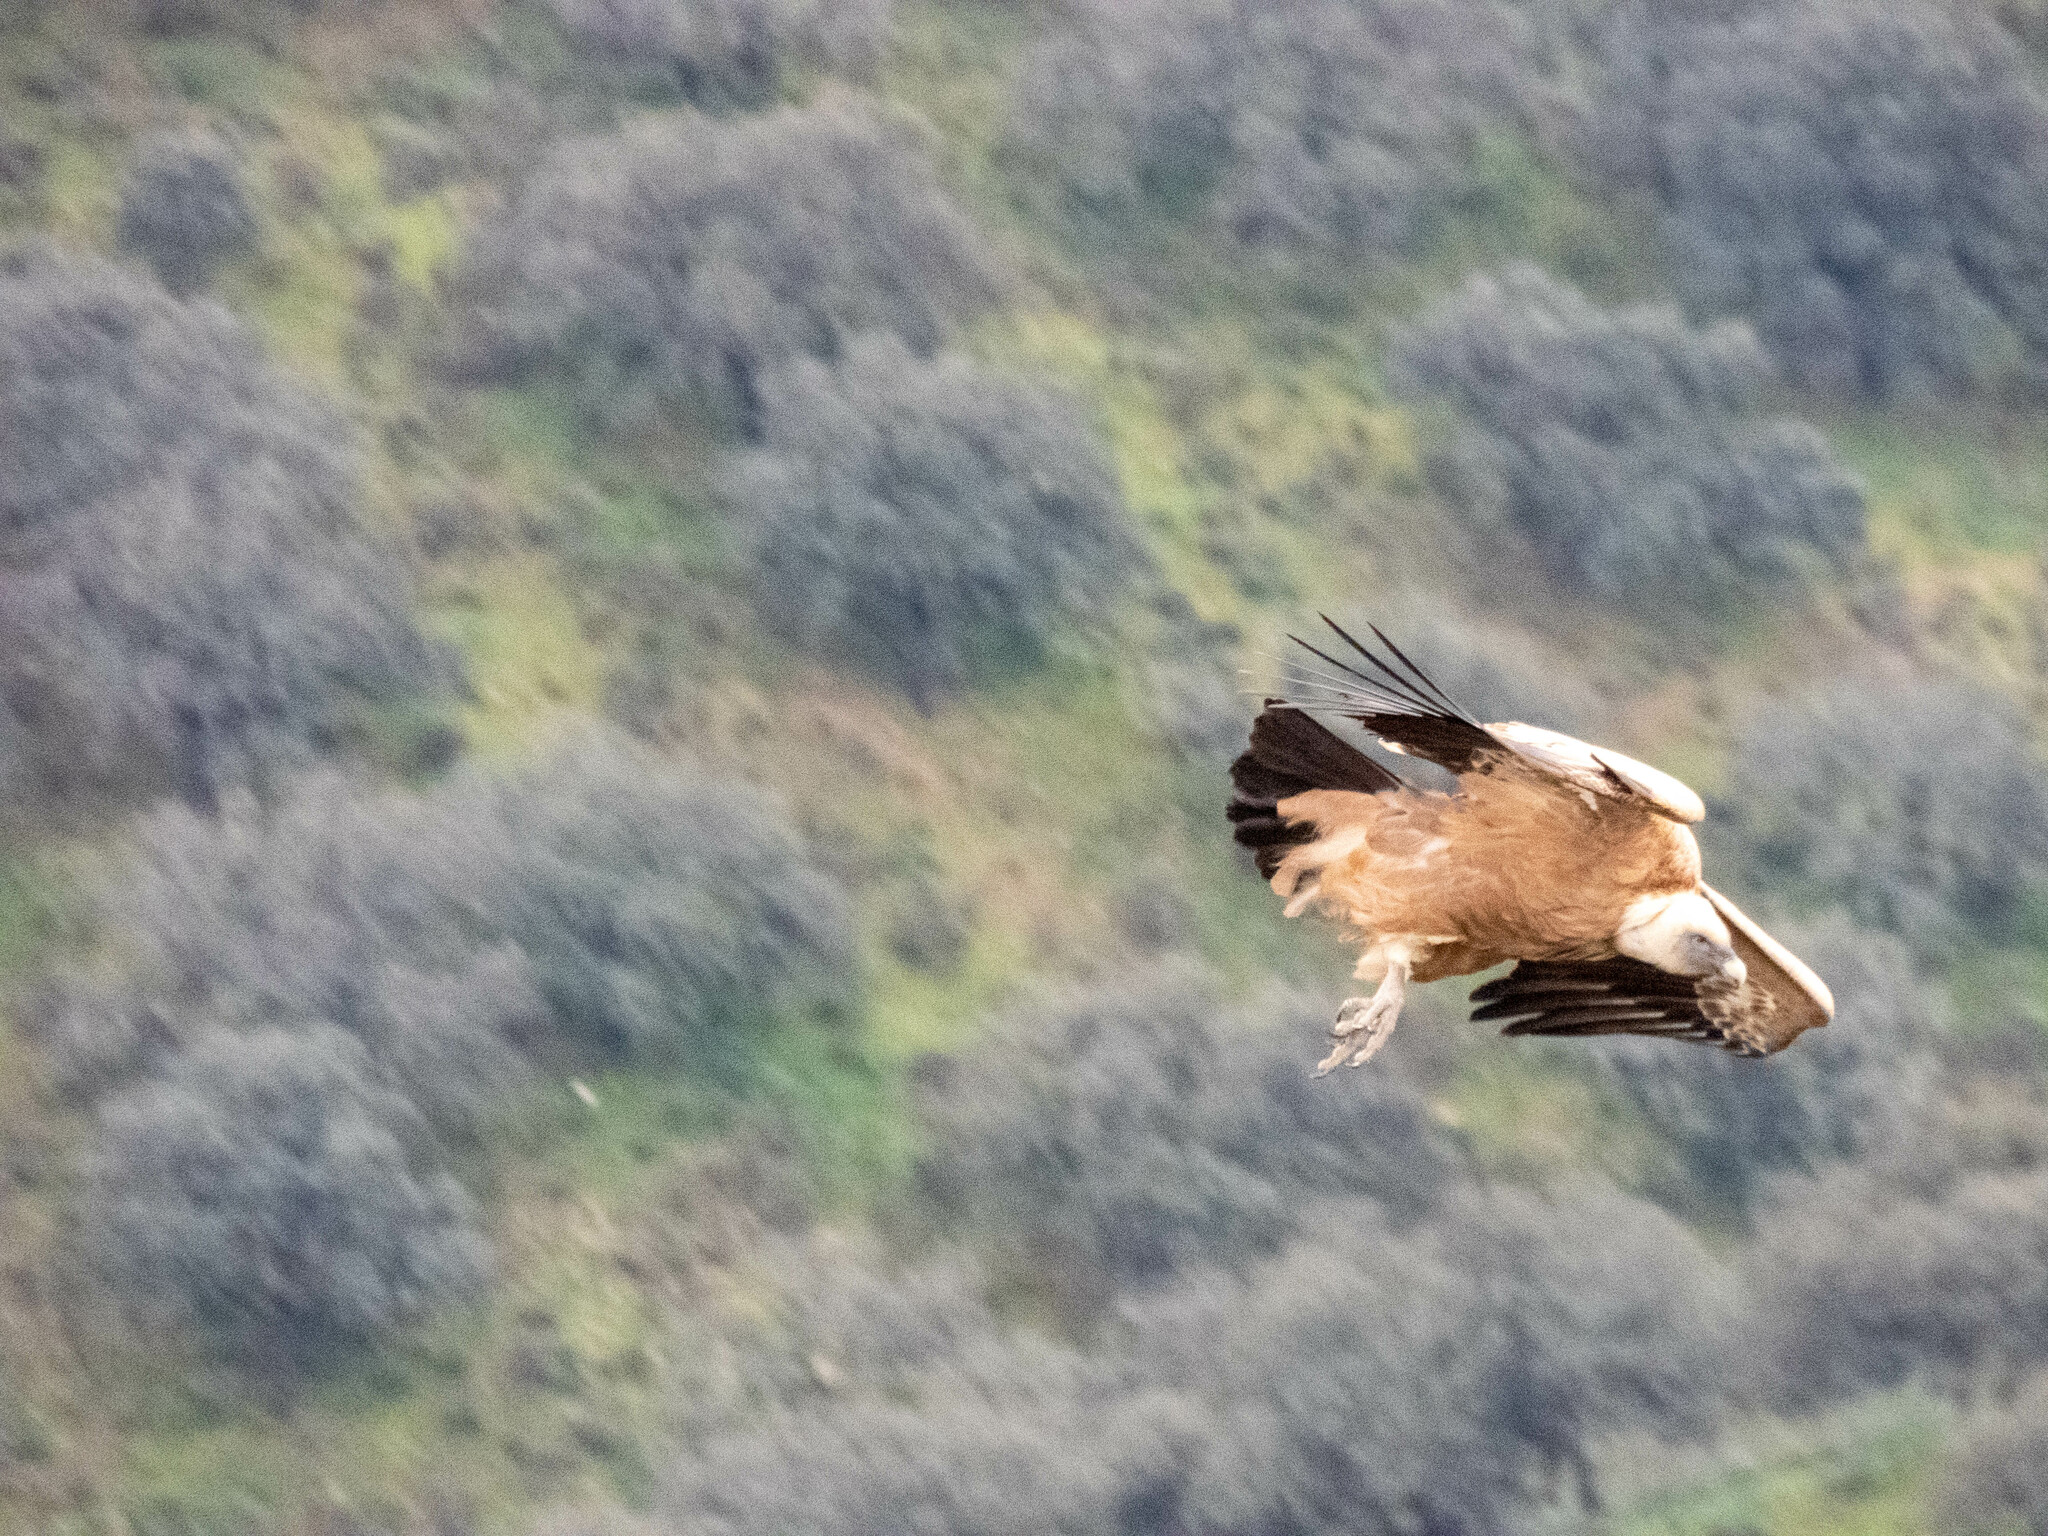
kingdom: Animalia
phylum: Chordata
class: Aves
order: Accipitriformes
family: Accipitridae
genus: Gyps
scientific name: Gyps fulvus
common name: Griffon vulture
